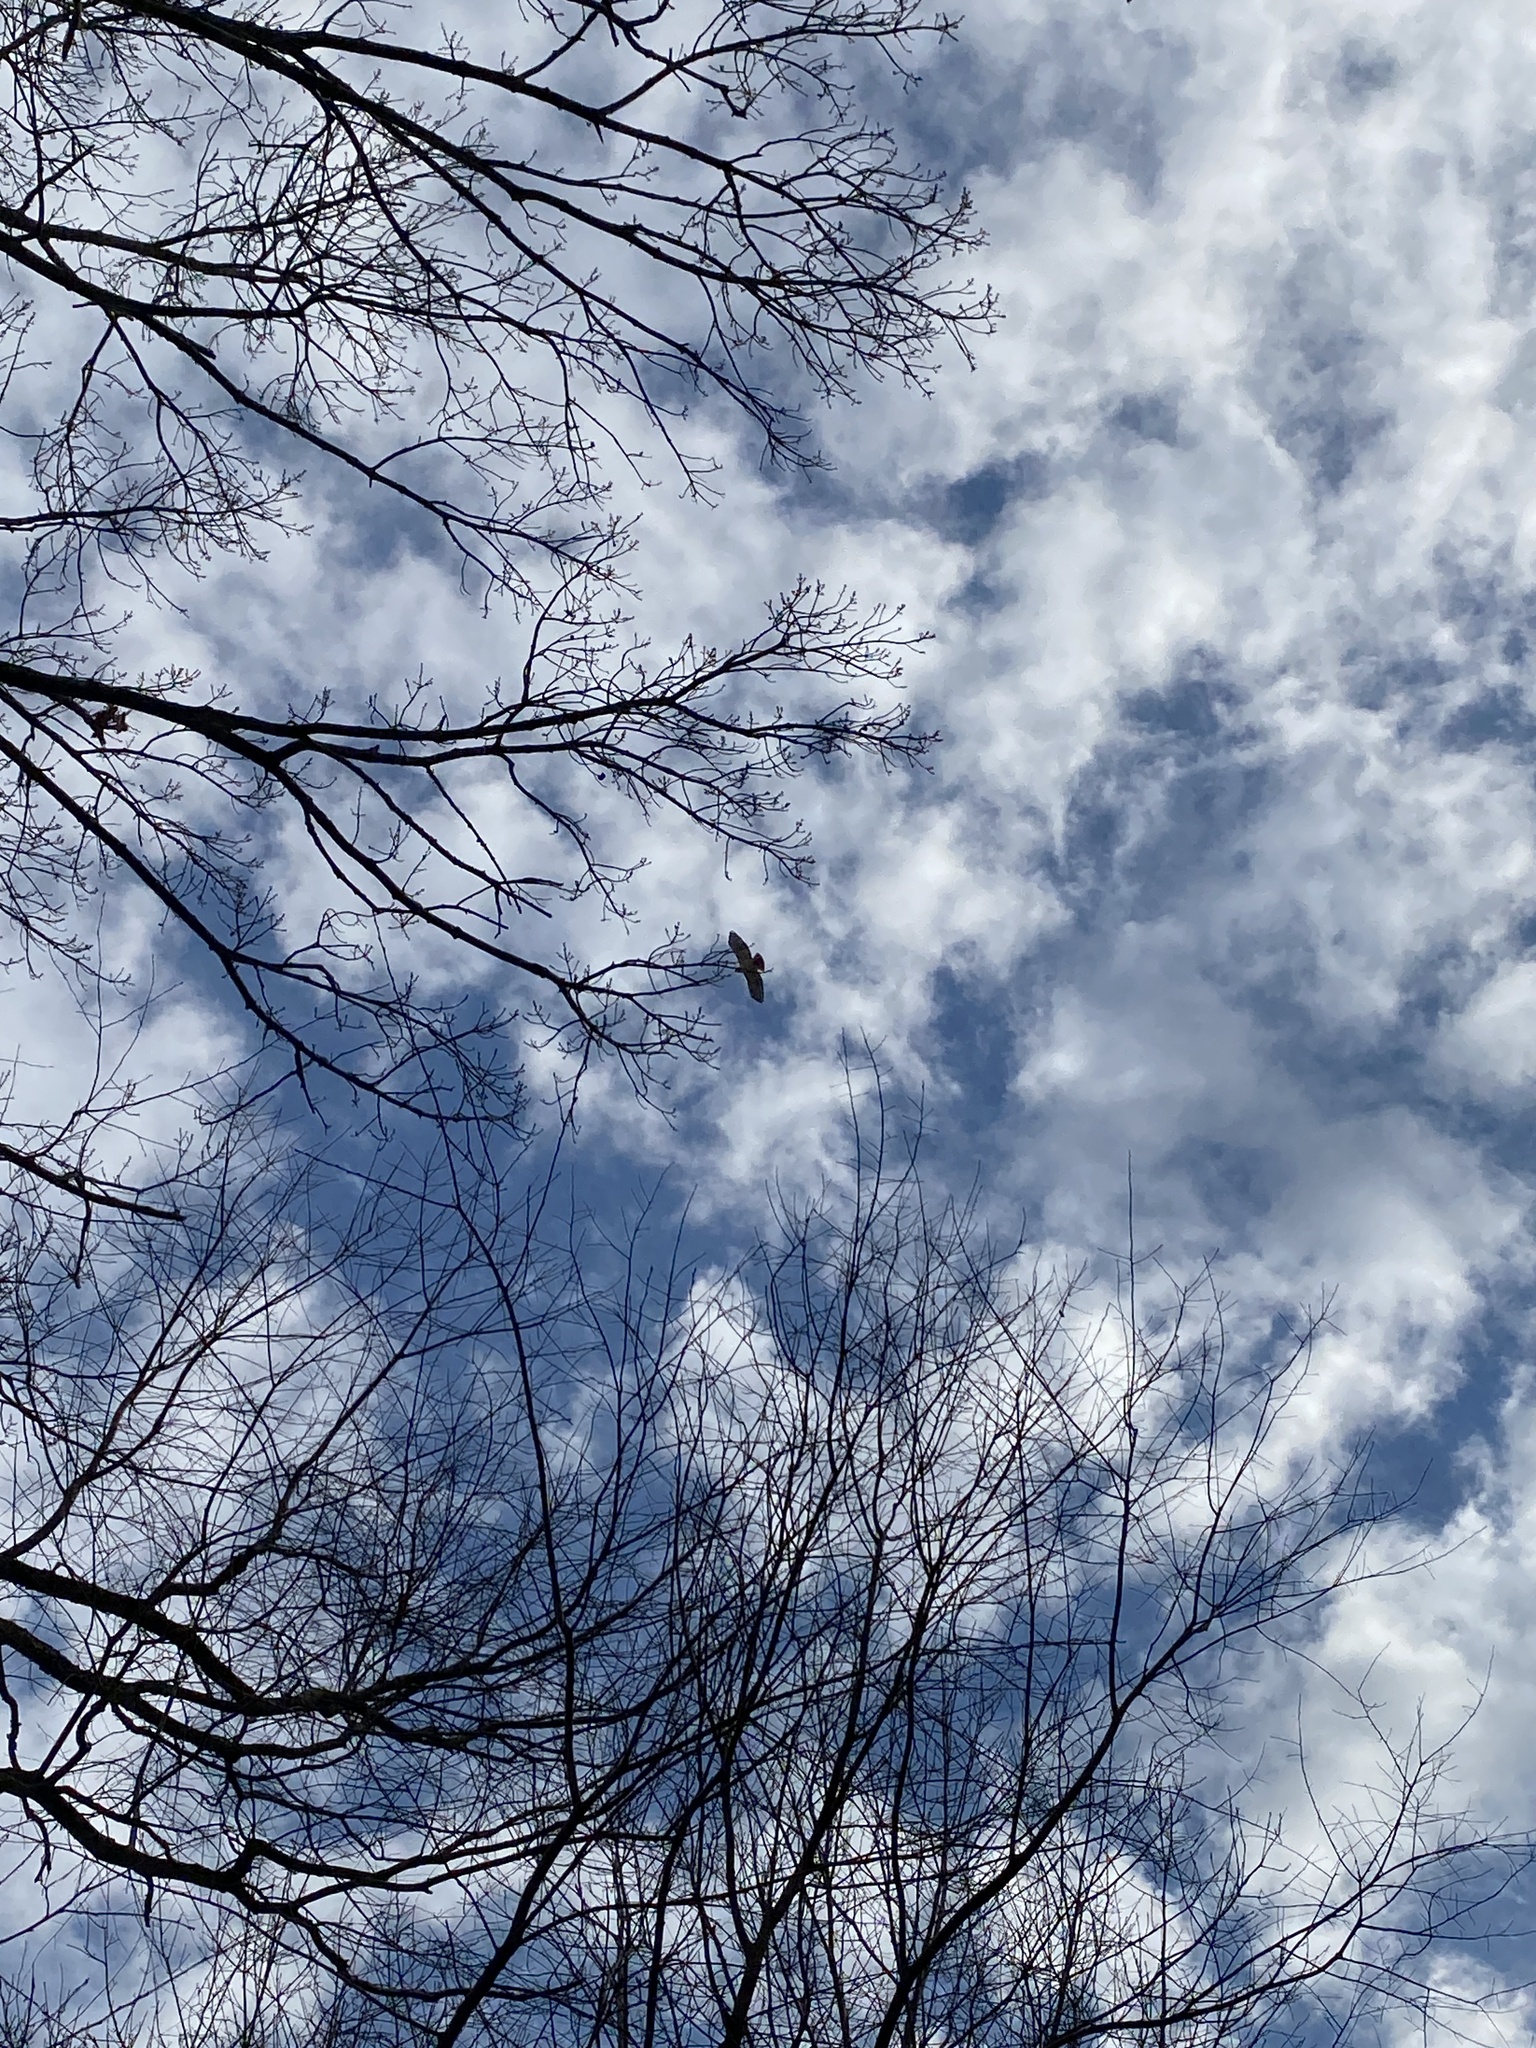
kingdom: Animalia
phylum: Chordata
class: Aves
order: Accipitriformes
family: Accipitridae
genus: Buteo
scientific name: Buteo jamaicensis
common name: Red-tailed hawk
